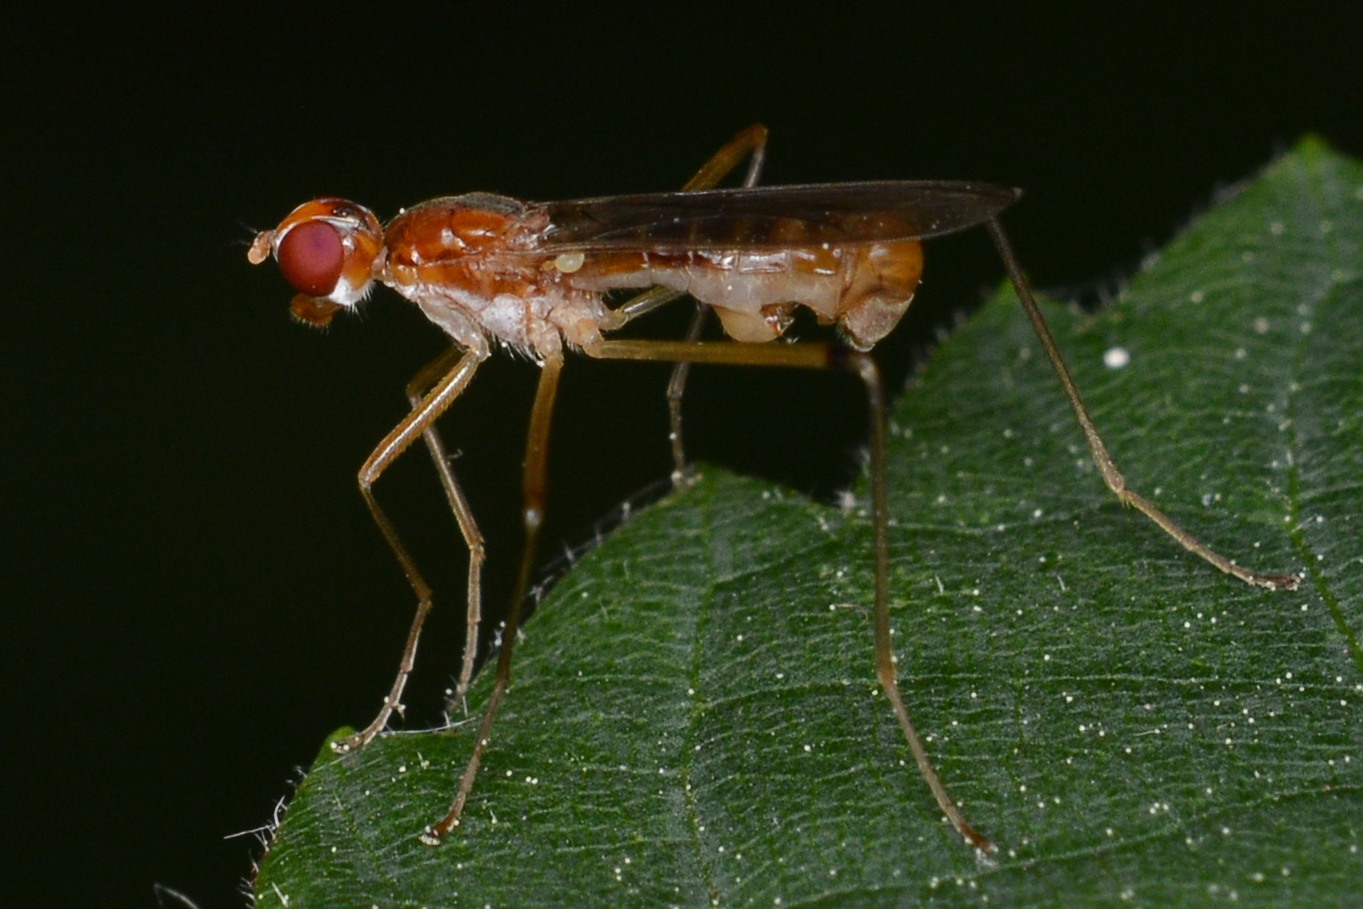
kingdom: Animalia
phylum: Arthropoda
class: Insecta
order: Diptera
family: Micropezidae
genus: Compsobata
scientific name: Compsobata univitta
